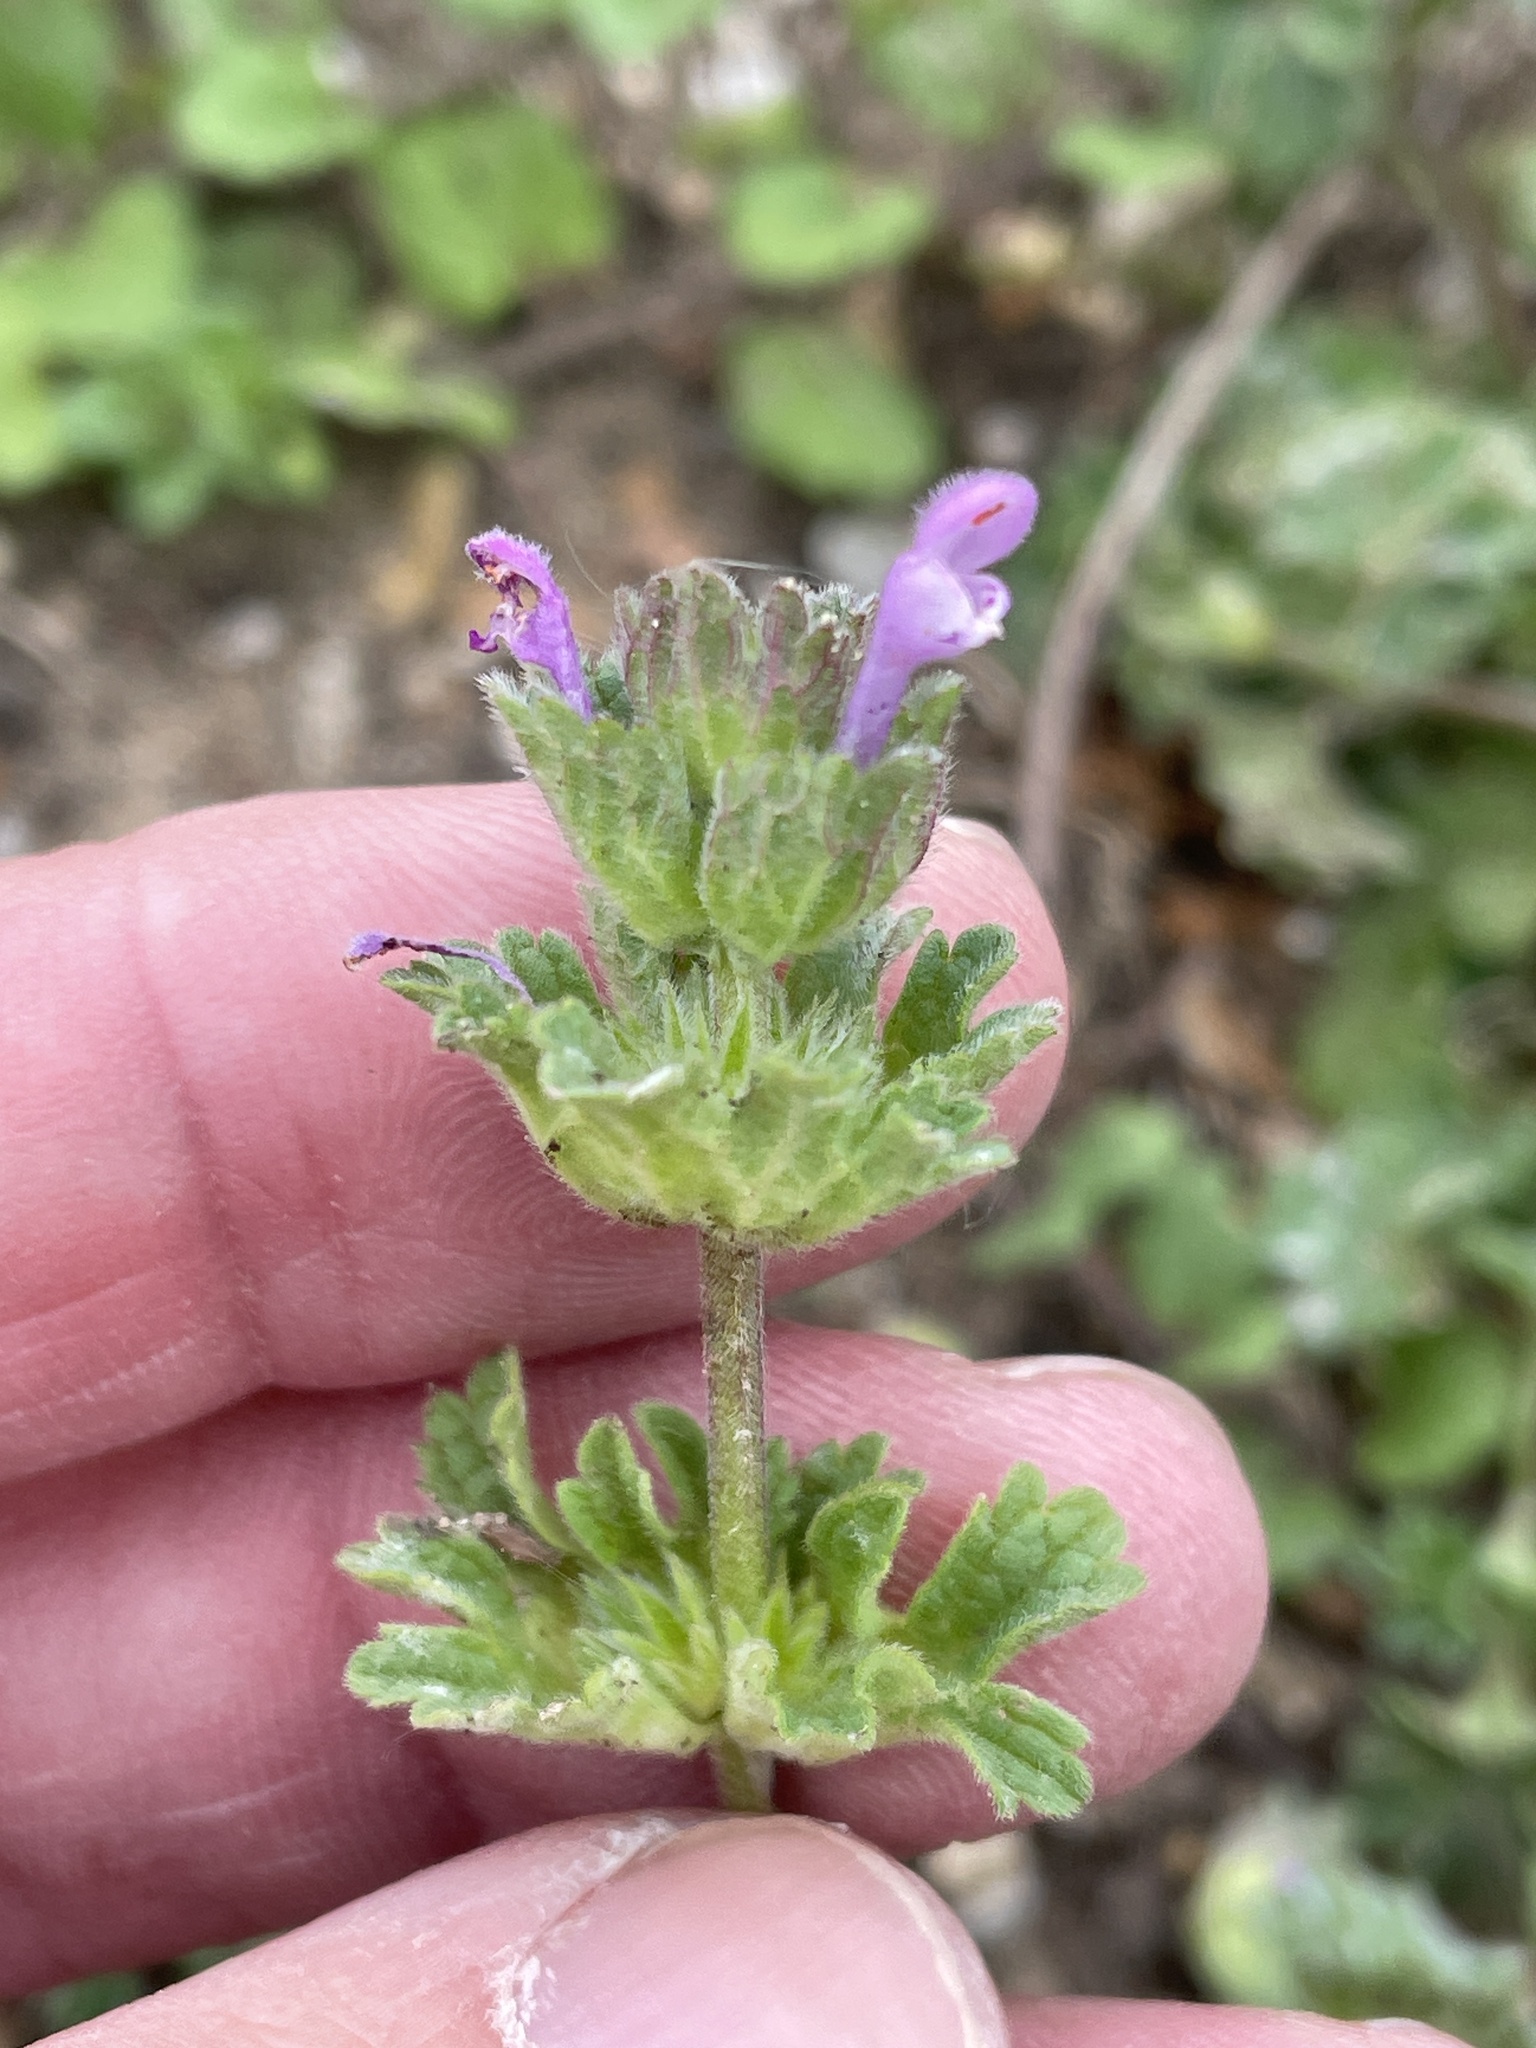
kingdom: Plantae
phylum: Tracheophyta
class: Magnoliopsida
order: Lamiales
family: Lamiaceae
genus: Lamium
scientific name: Lamium amplexicaule
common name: Henbit dead-nettle
